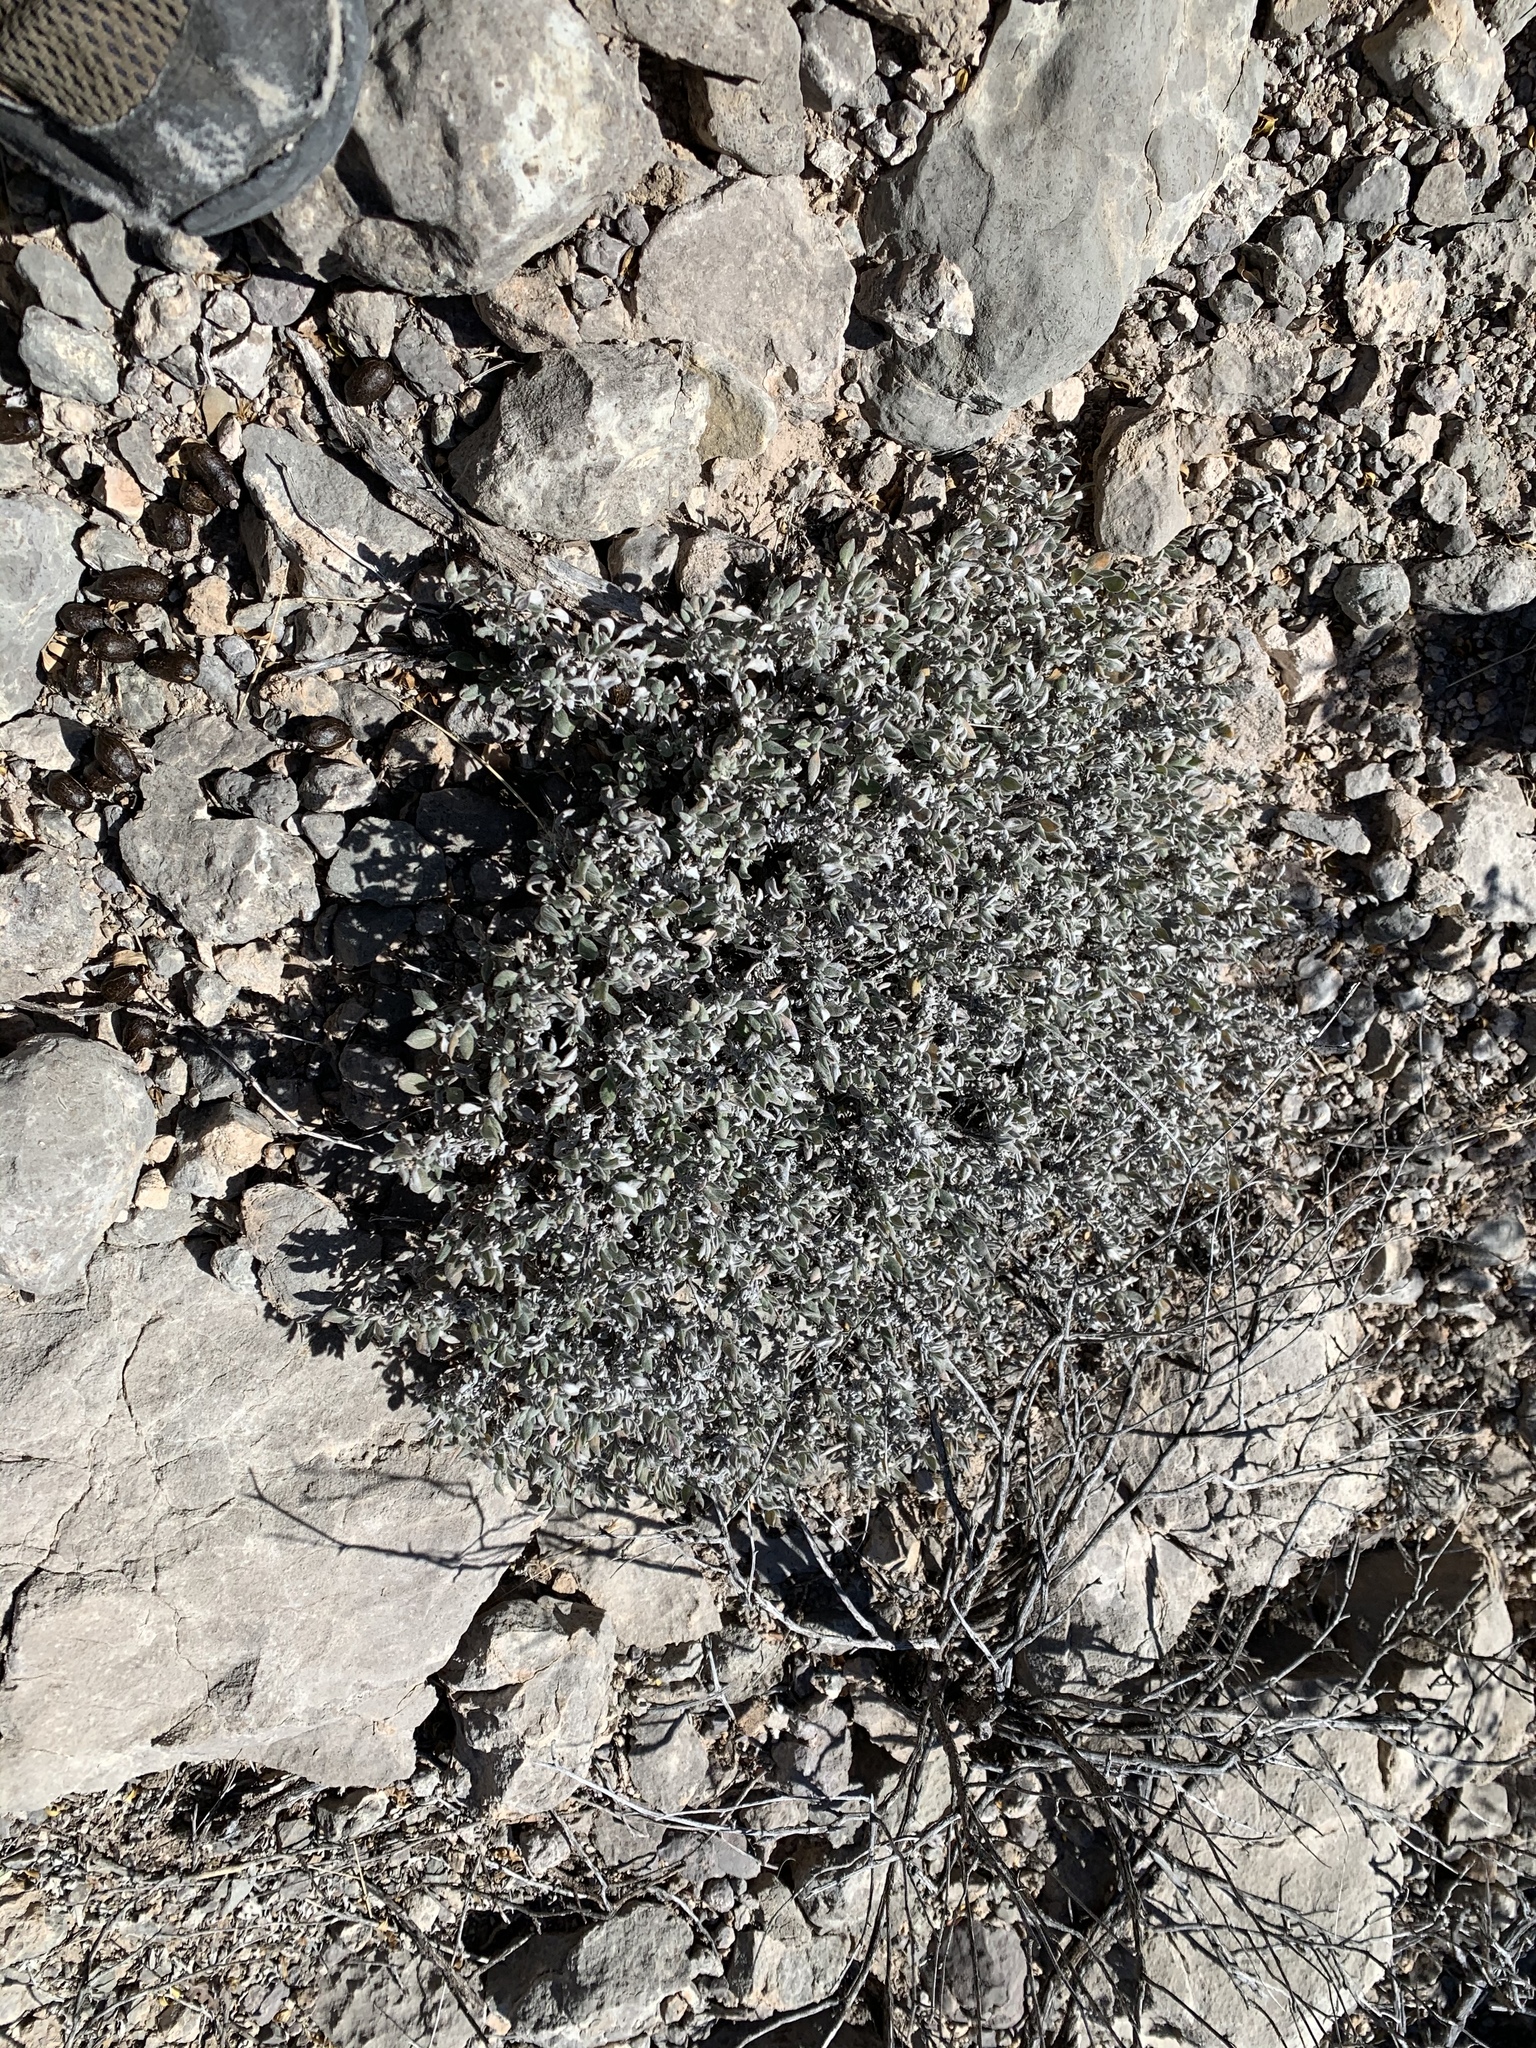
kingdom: Plantae
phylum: Tracheophyta
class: Magnoliopsida
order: Boraginales
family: Ehretiaceae
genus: Tiquilia
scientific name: Tiquilia canescens
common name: Hairy tiquilia
